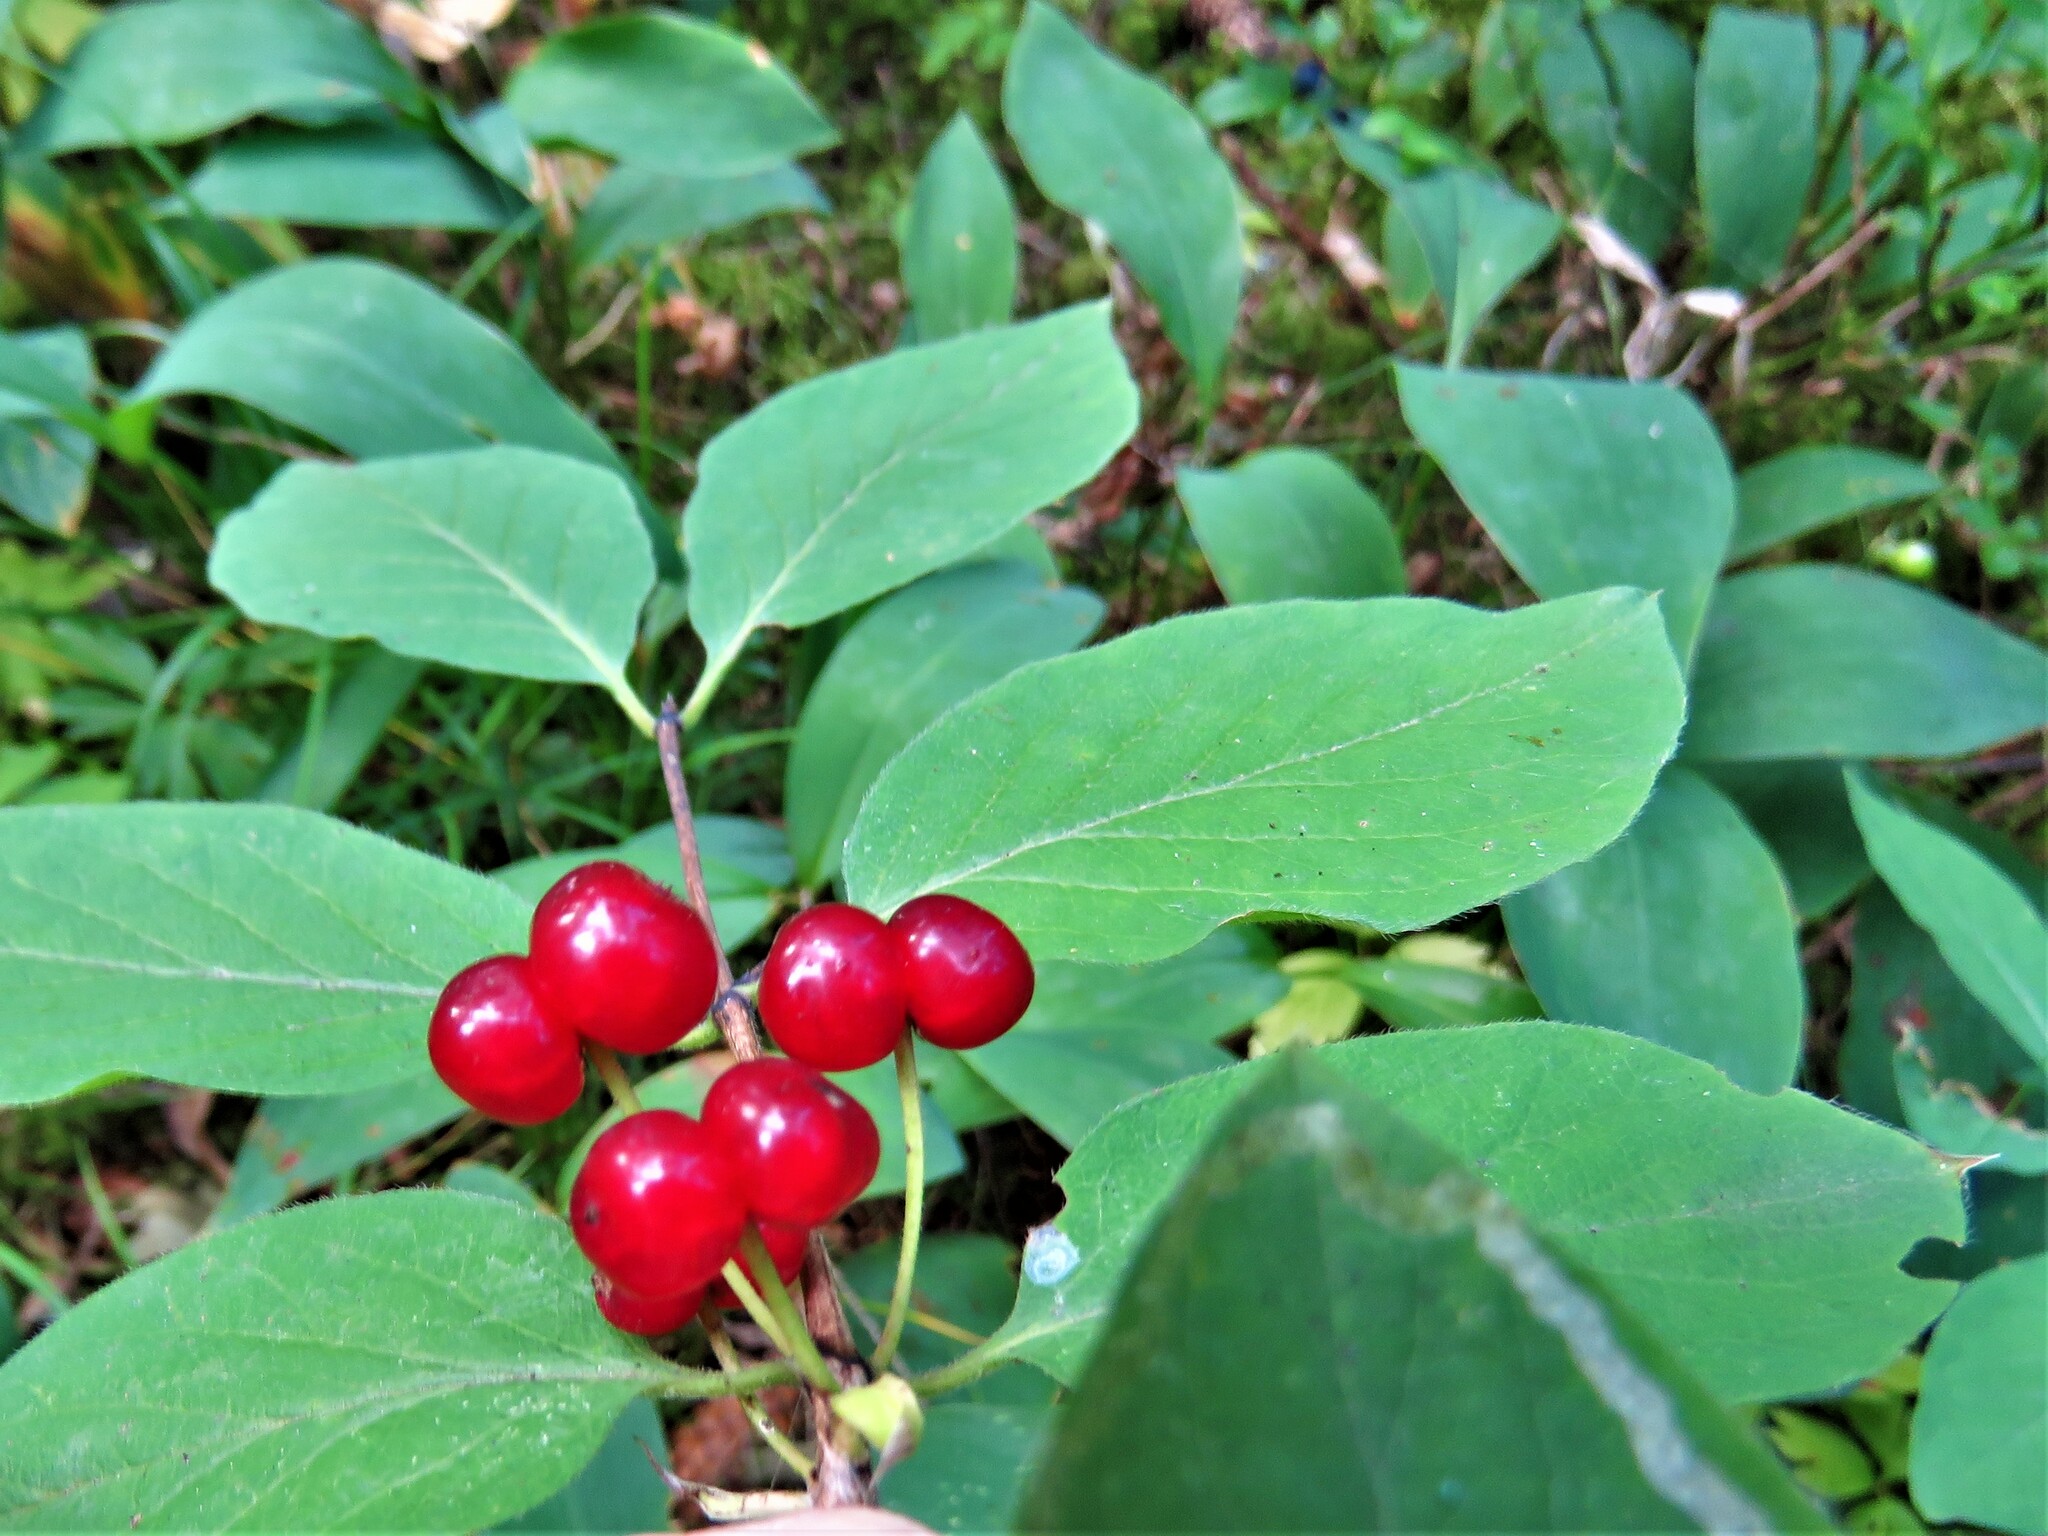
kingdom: Plantae
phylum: Tracheophyta
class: Magnoliopsida
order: Dipsacales
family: Caprifoliaceae
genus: Lonicera
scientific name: Lonicera xylosteum
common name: Fly honeysuckle
